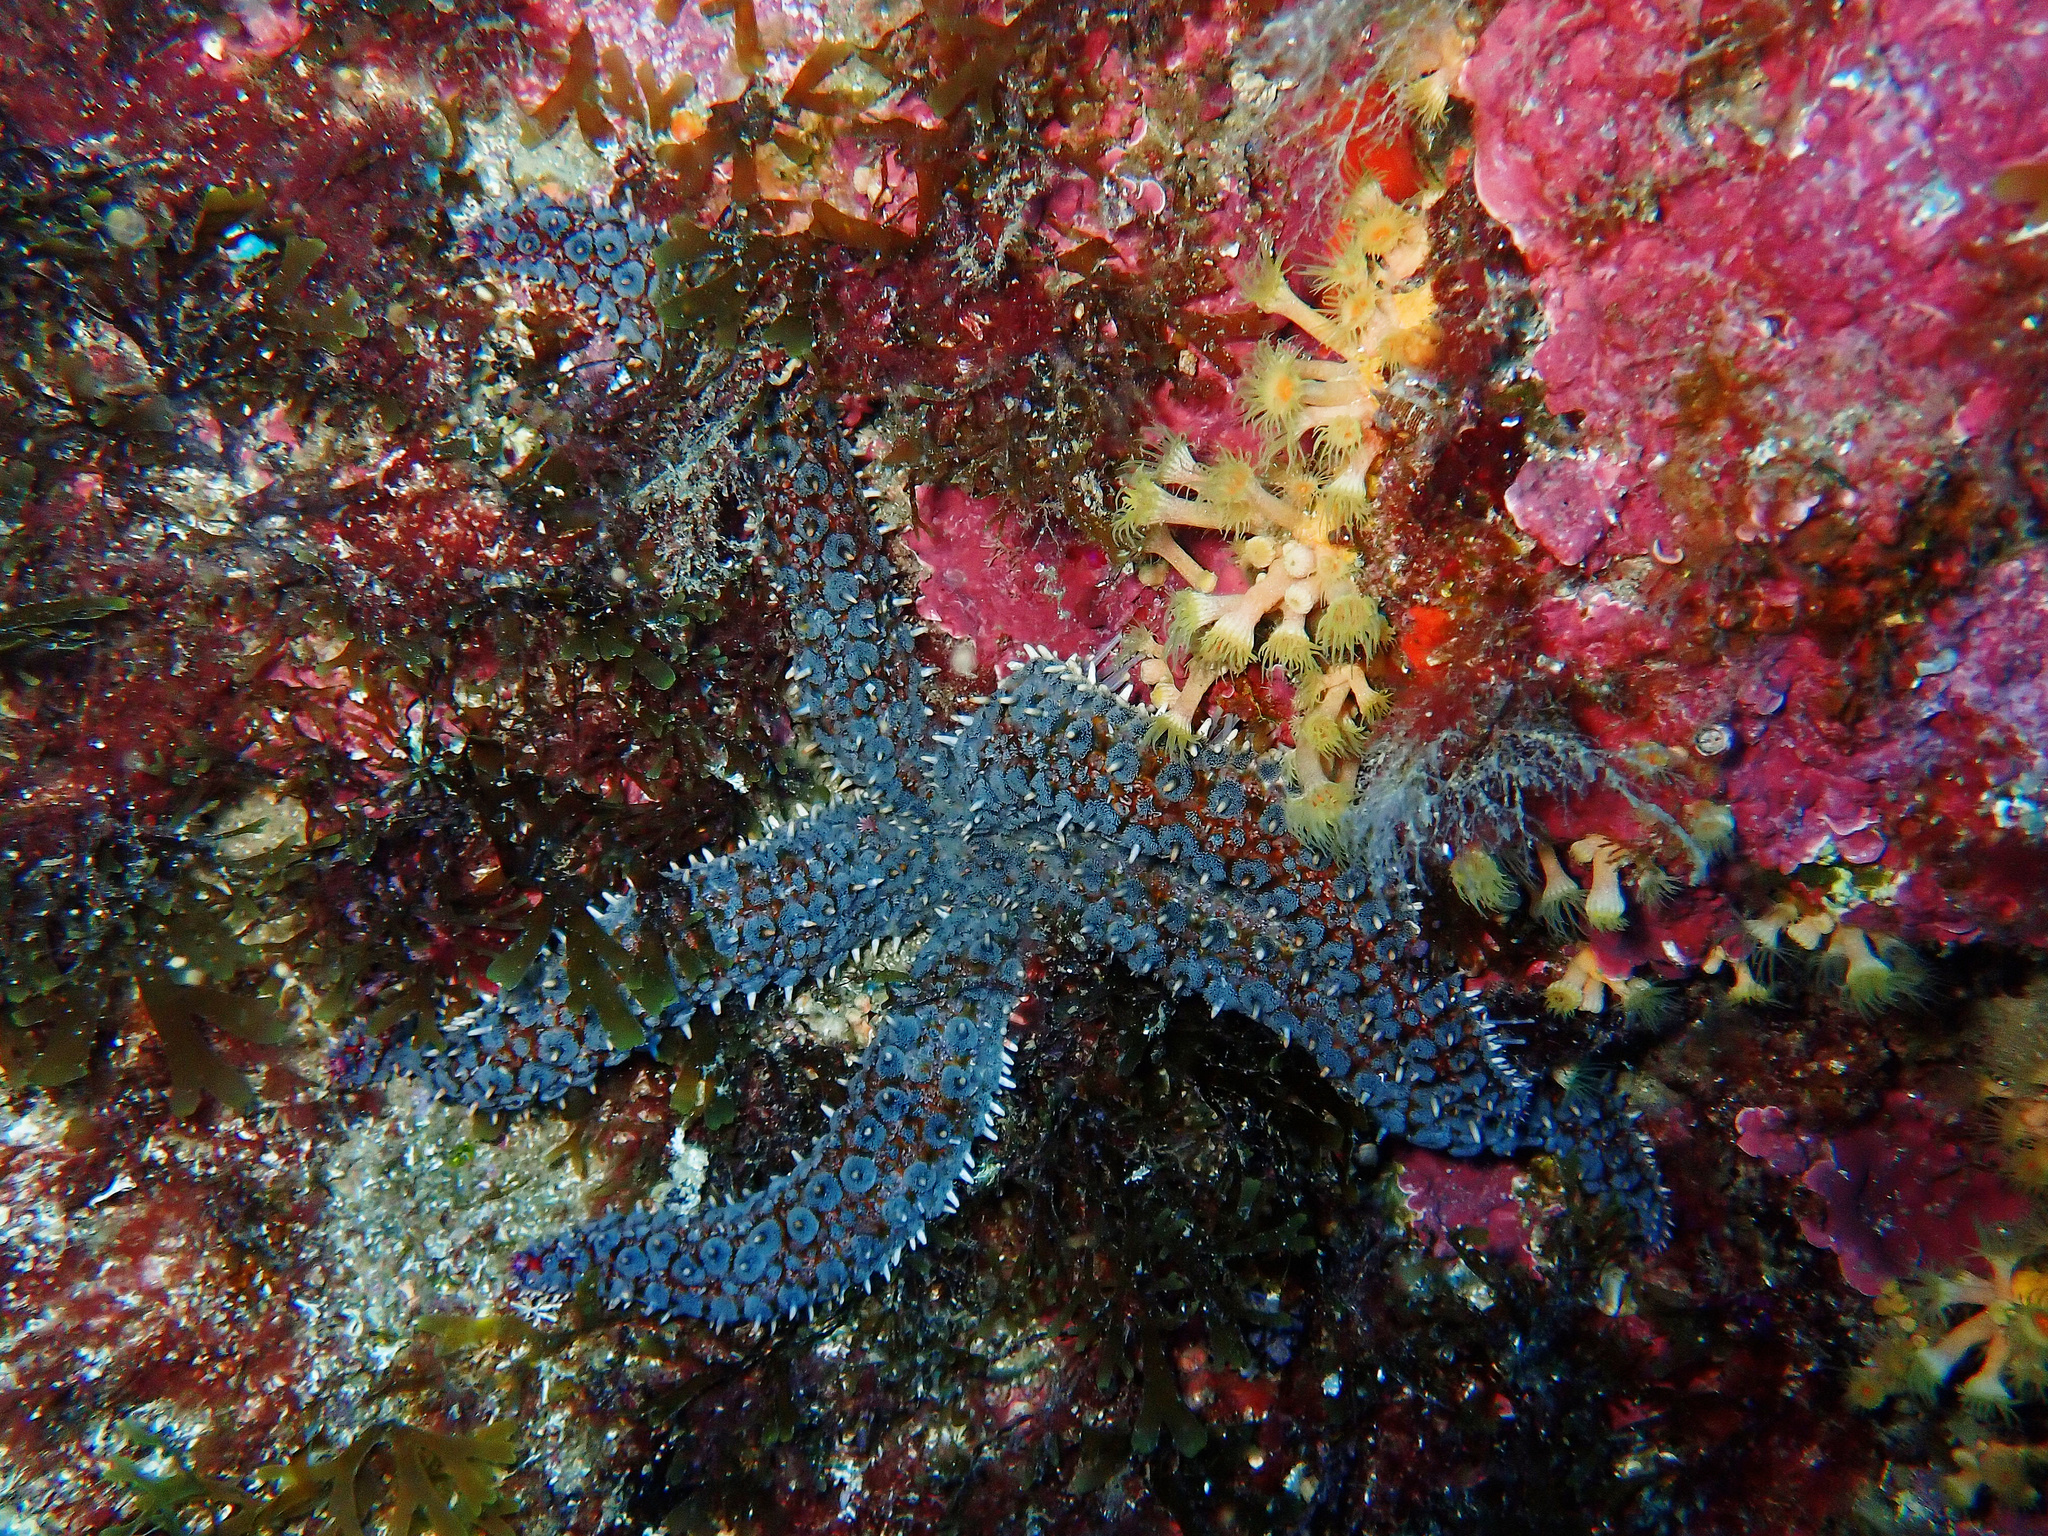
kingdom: Animalia
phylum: Echinodermata
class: Asteroidea
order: Forcipulatida
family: Asteriidae
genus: Marthasterias
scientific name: Marthasterias glacialis
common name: Spiny starfish
